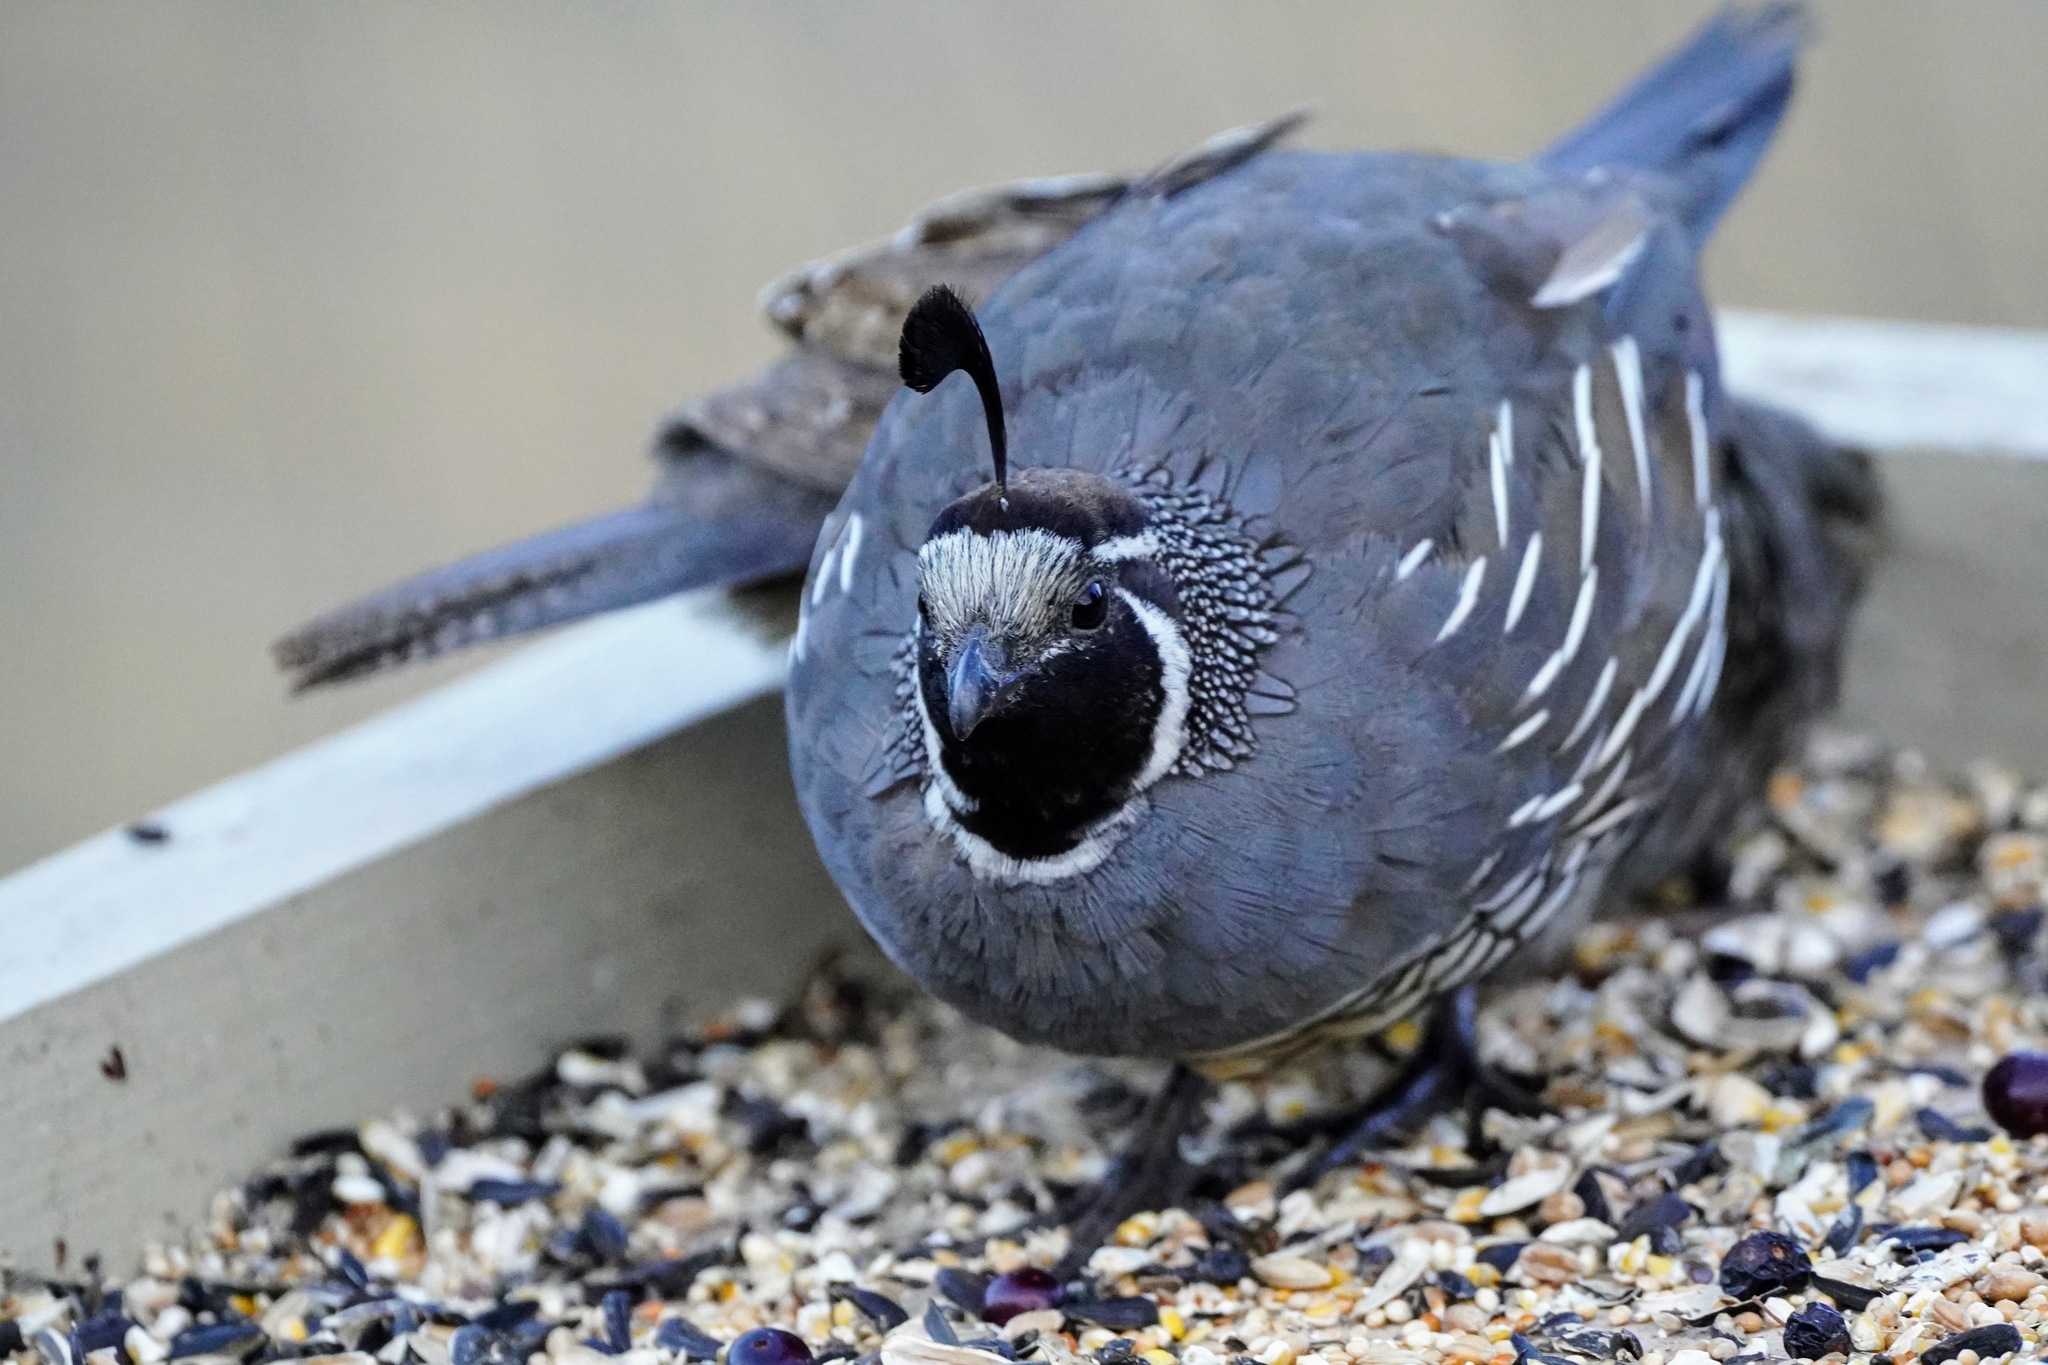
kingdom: Animalia
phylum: Chordata
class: Aves
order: Galliformes
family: Odontophoridae
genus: Callipepla
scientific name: Callipepla californica
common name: California quail
